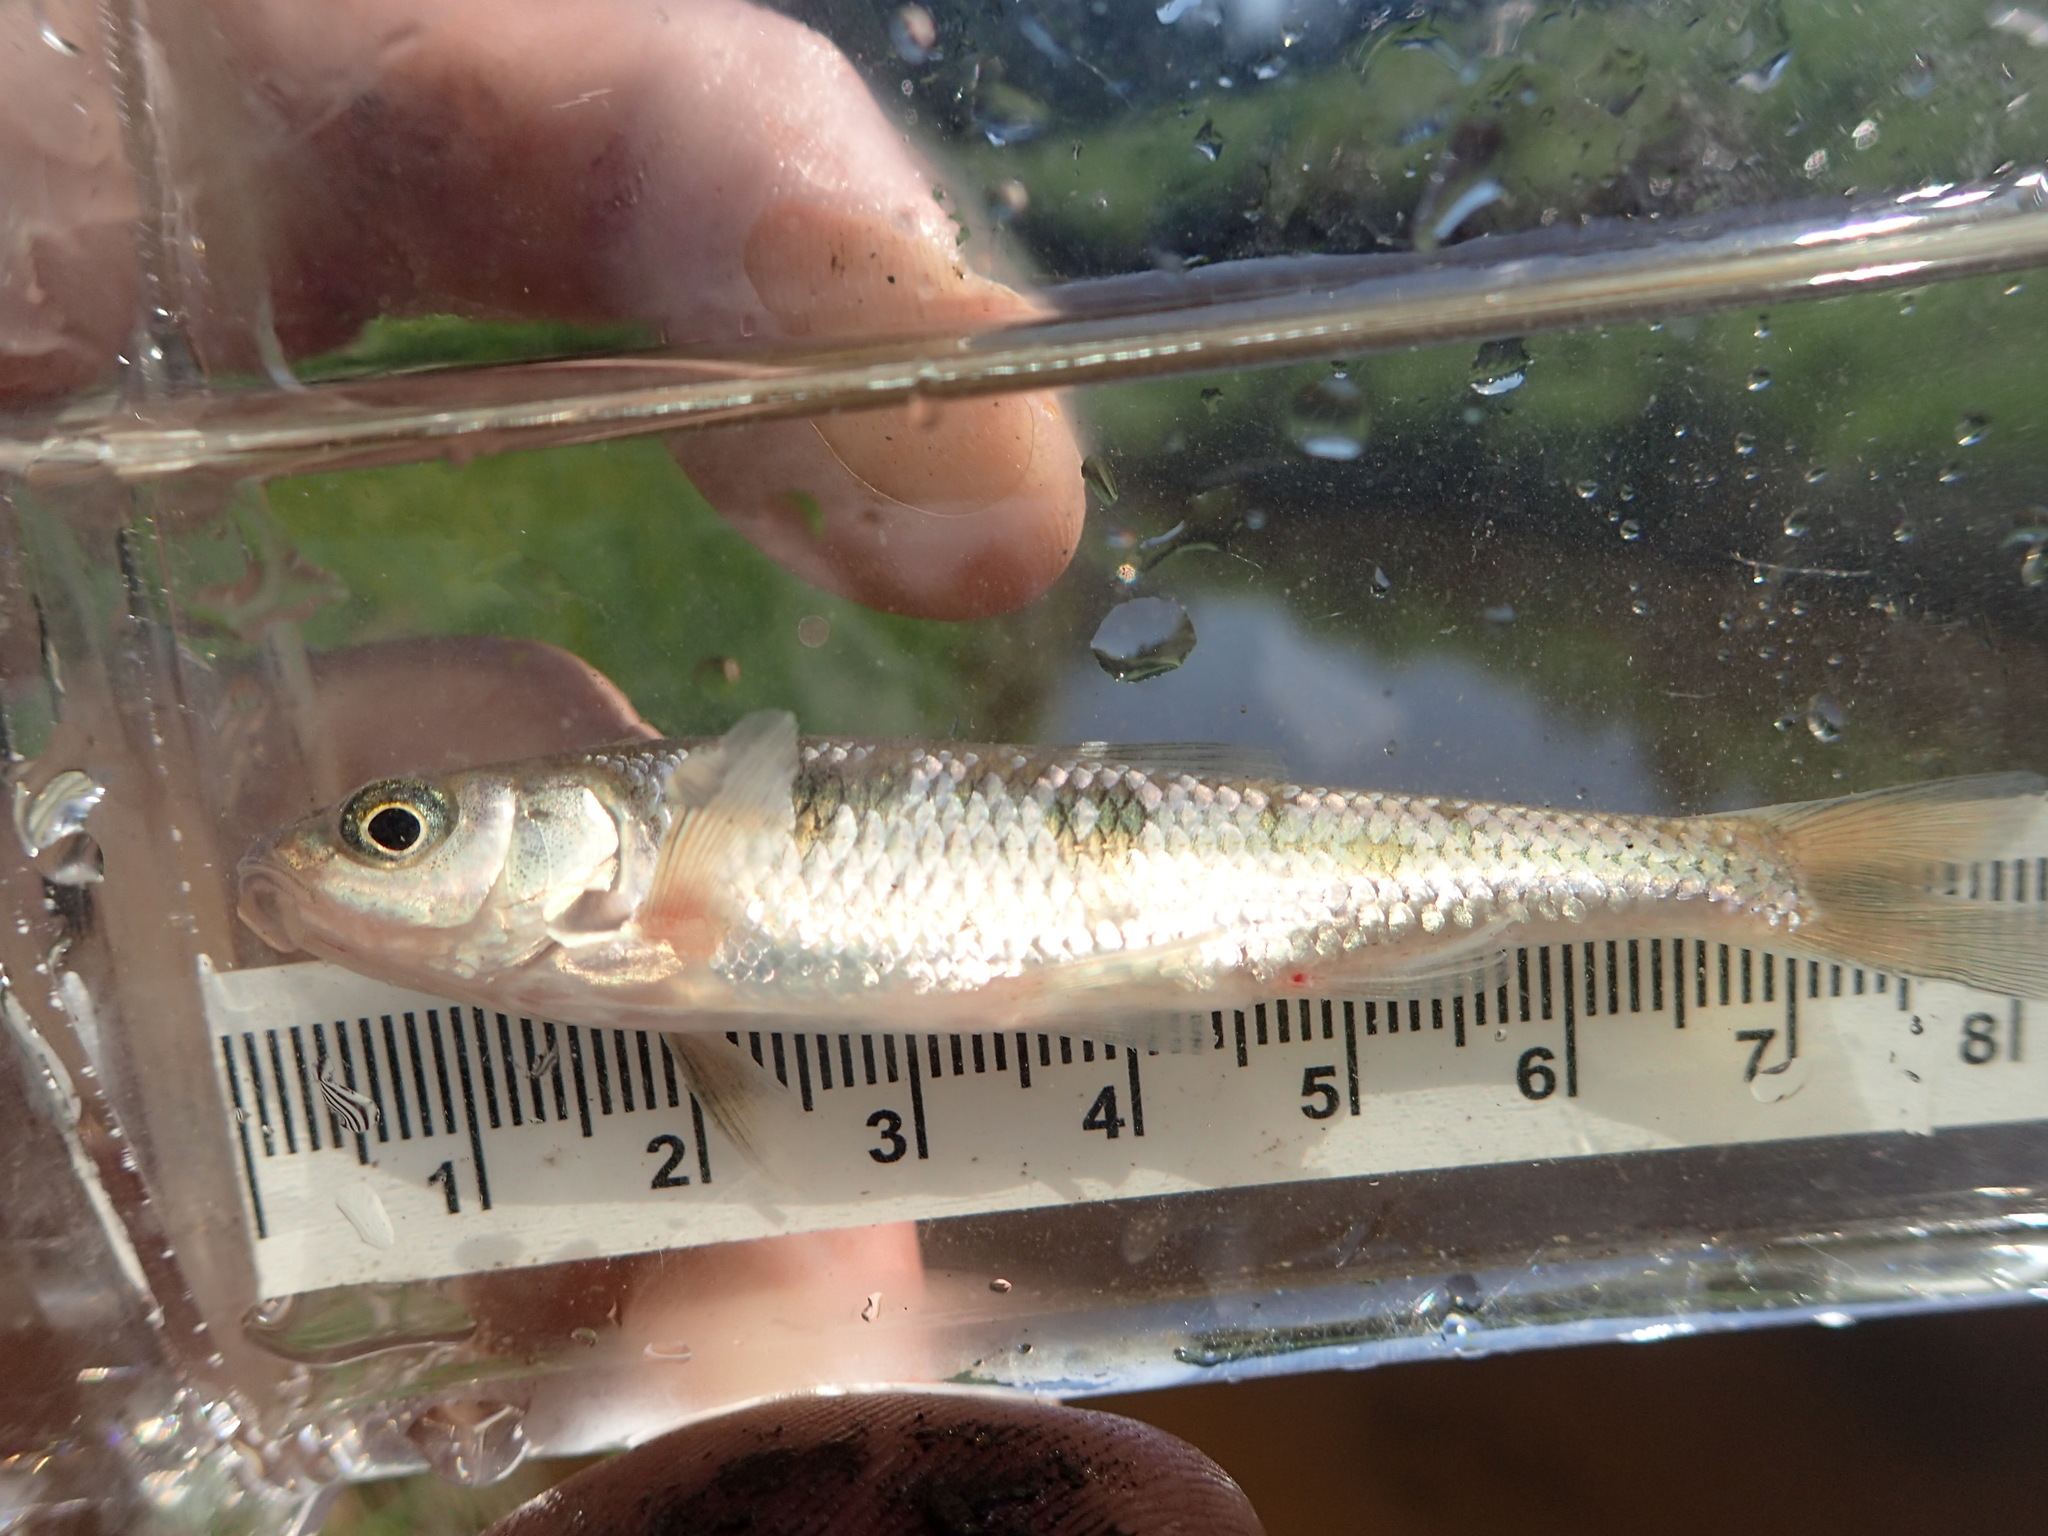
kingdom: Animalia
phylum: Chordata
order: Cypriniformes
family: Cyprinidae
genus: Luxilus
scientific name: Luxilus cornutus
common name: Common shiner
